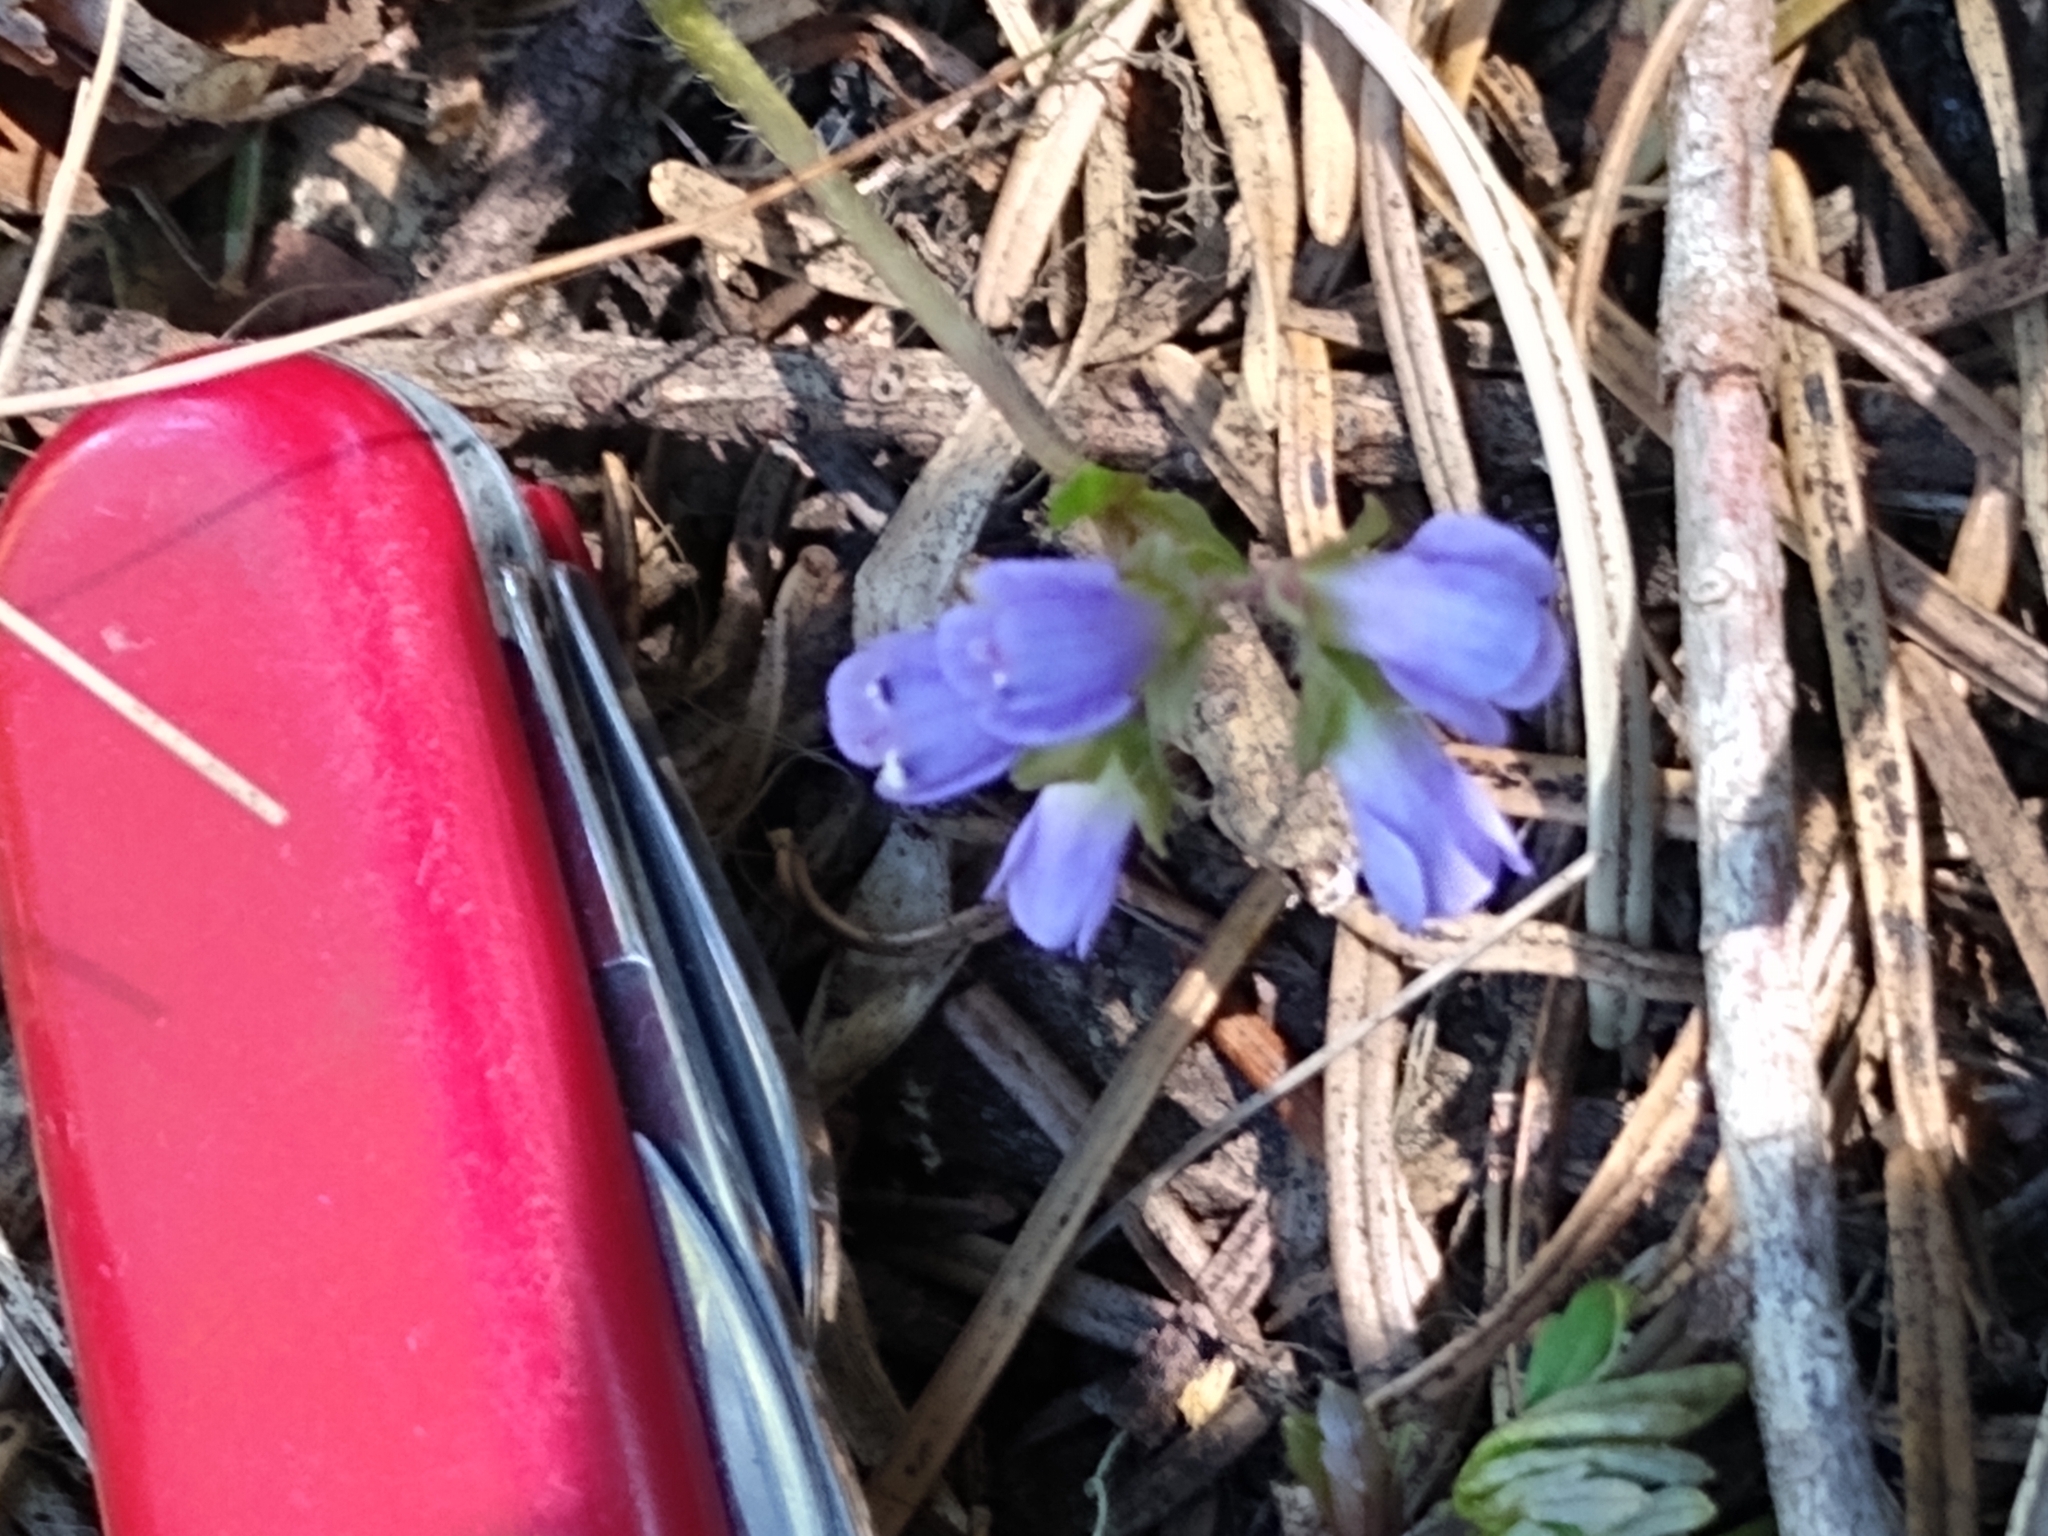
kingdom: Plantae
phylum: Tracheophyta
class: Magnoliopsida
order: Ranunculales
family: Ranunculaceae
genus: Anemone
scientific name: Anemone oregana
